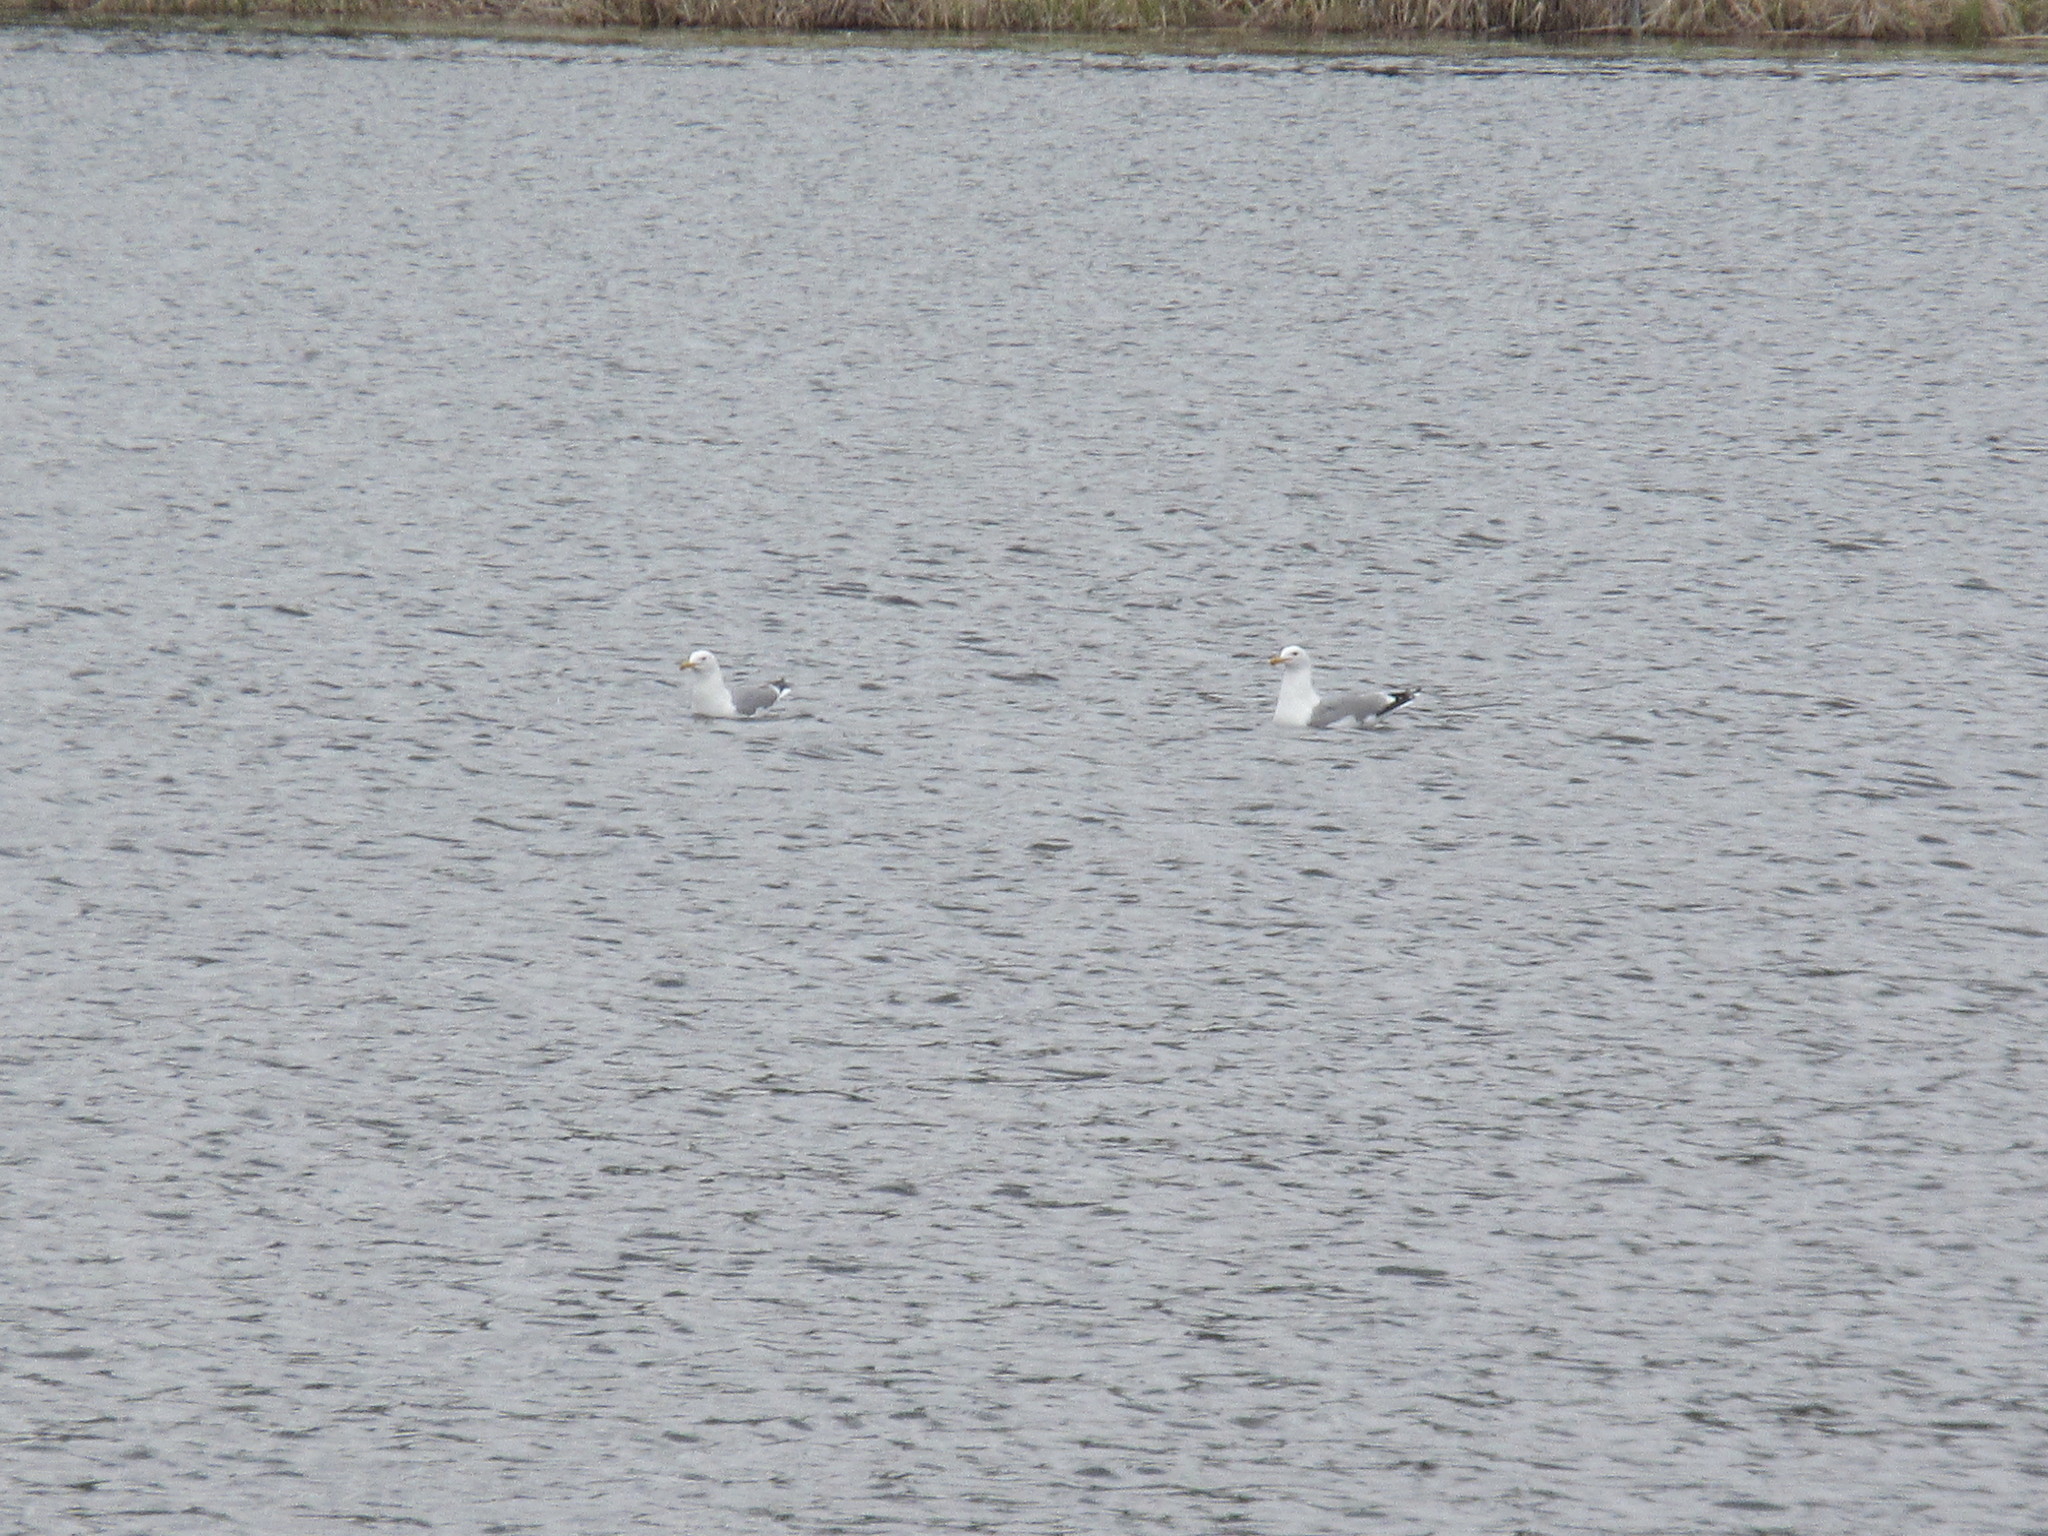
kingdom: Animalia
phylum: Chordata
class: Aves
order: Charadriiformes
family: Laridae
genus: Larus
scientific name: Larus californicus
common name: California gull
